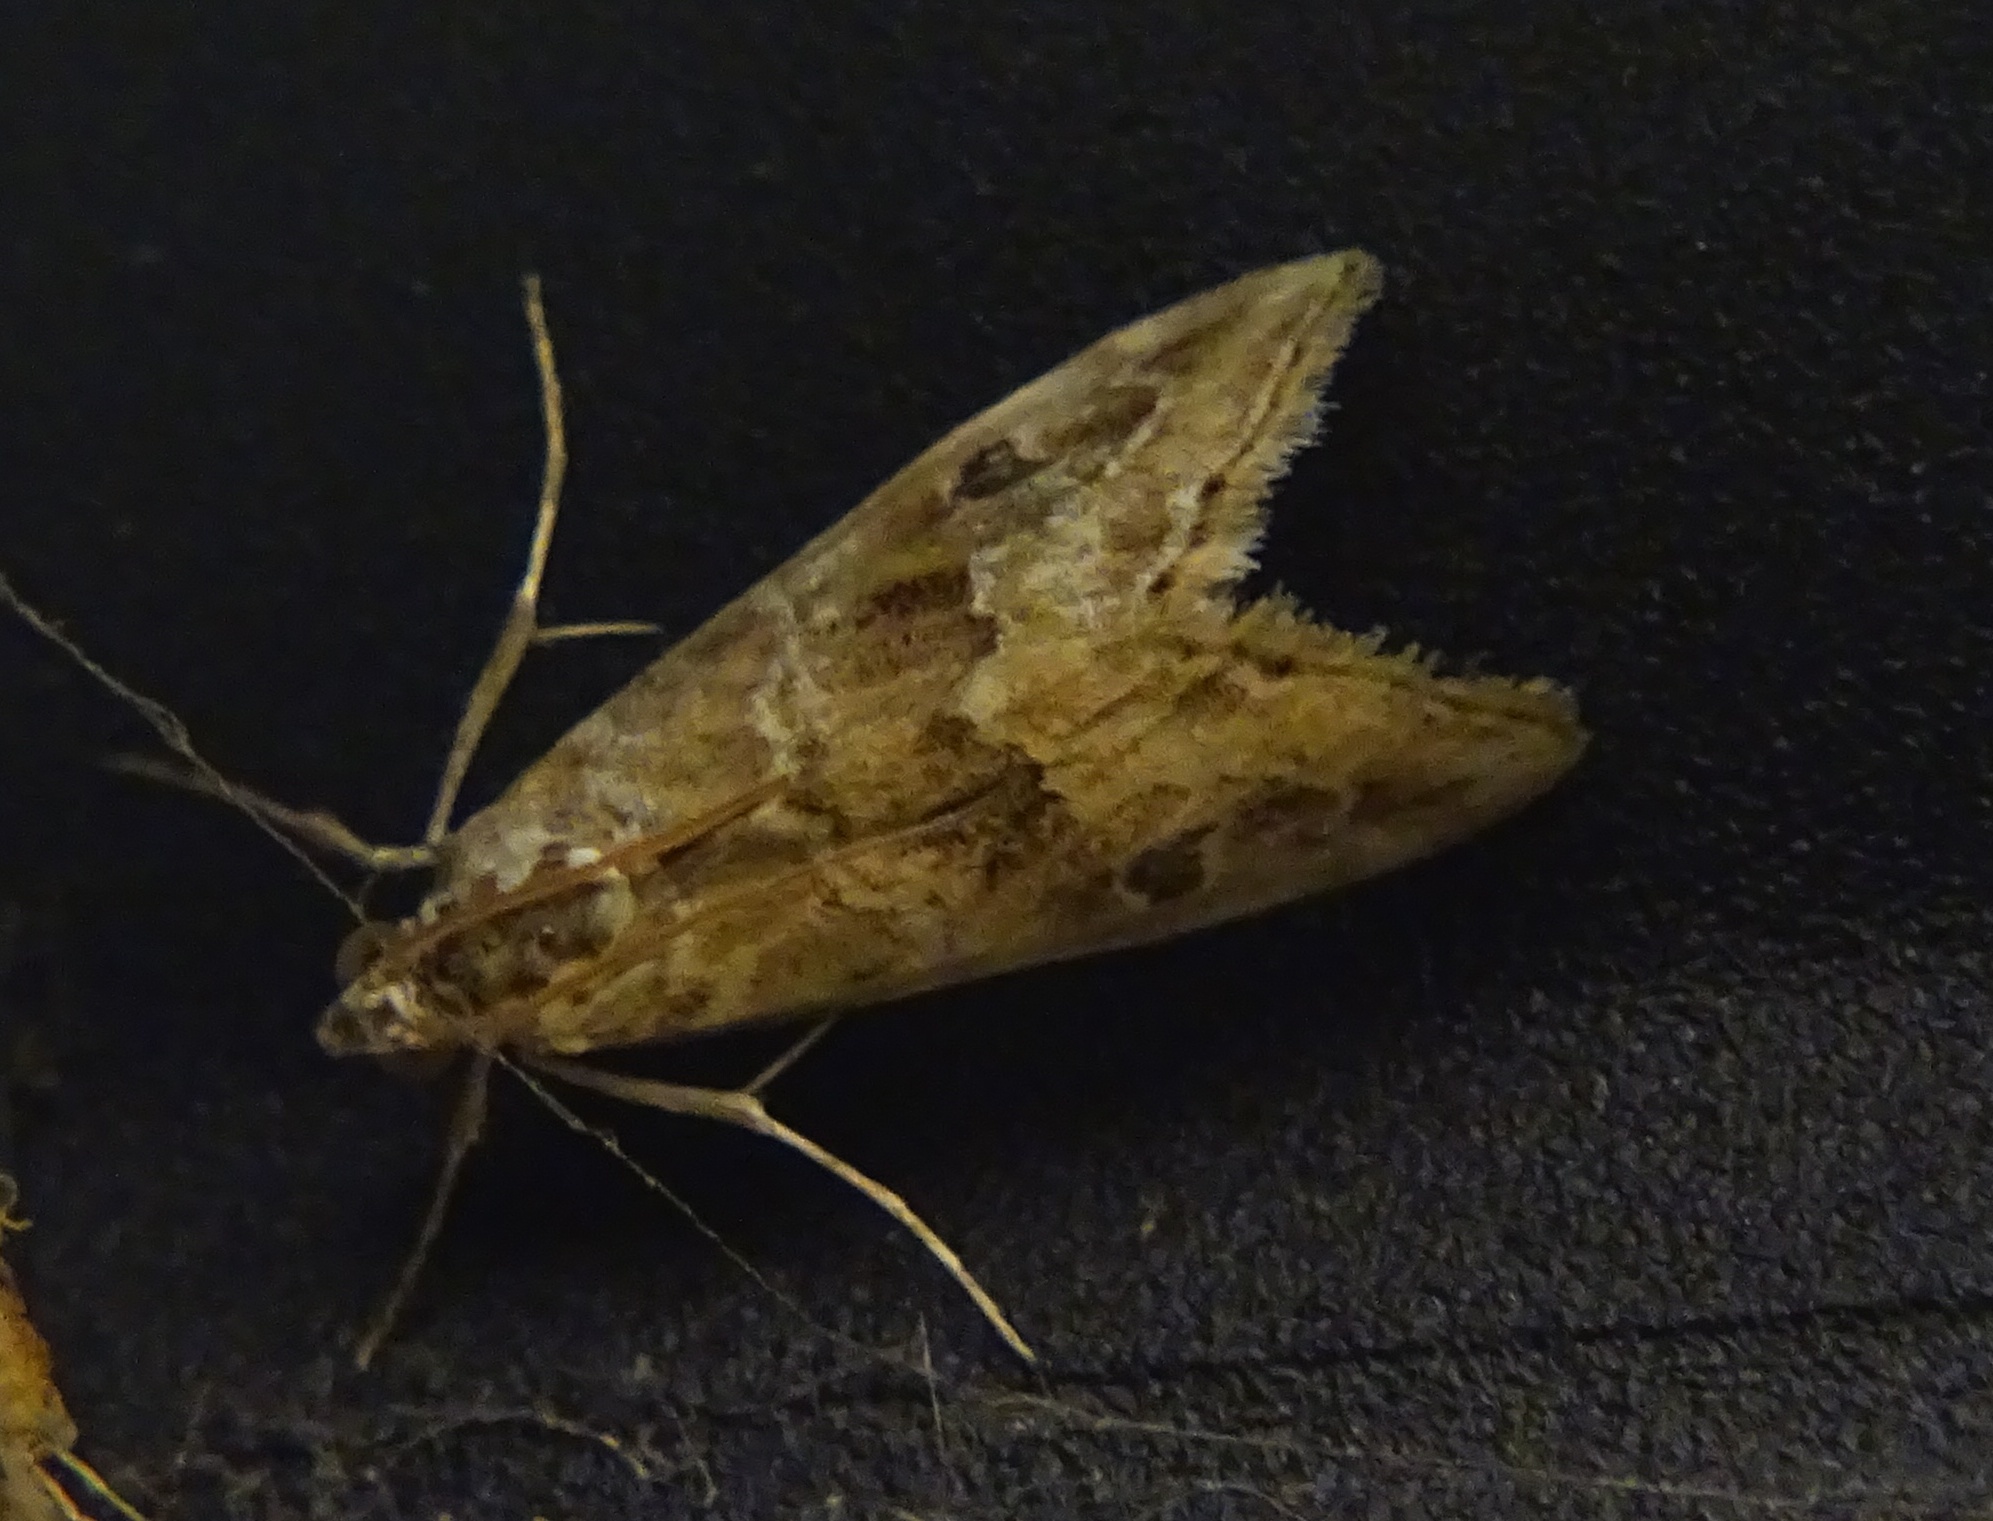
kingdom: Animalia
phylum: Arthropoda
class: Insecta
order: Lepidoptera
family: Crambidae
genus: Hellula
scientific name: Hellula rogatalis
